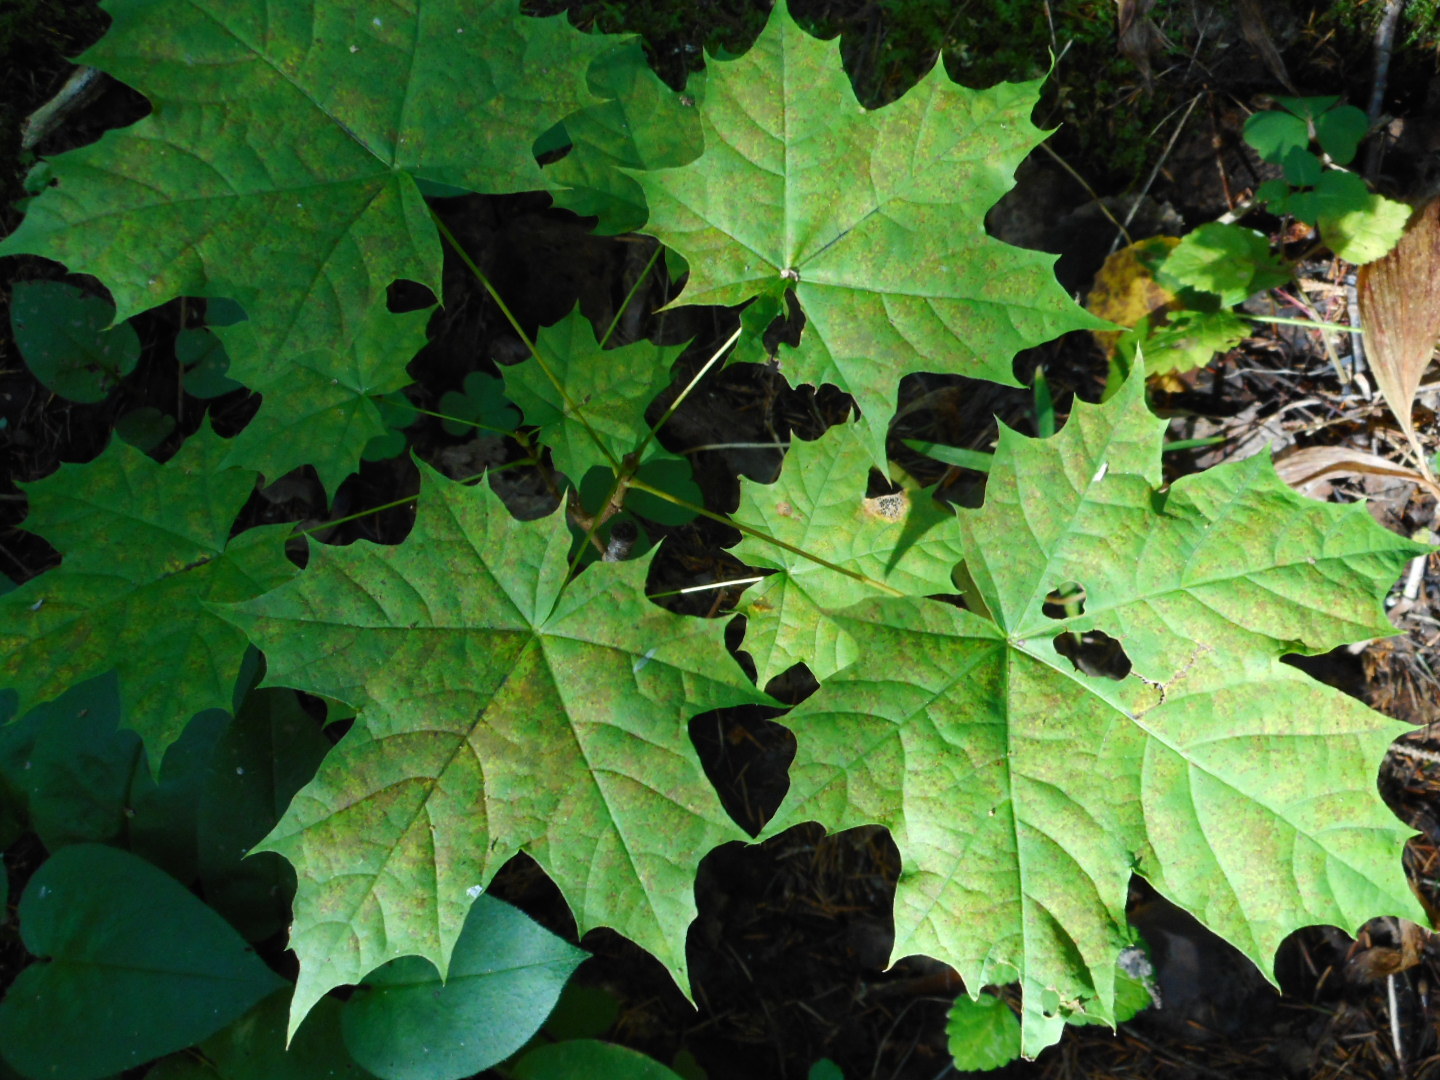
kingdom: Plantae
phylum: Tracheophyta
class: Magnoliopsida
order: Sapindales
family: Sapindaceae
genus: Acer
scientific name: Acer platanoides
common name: Norway maple
